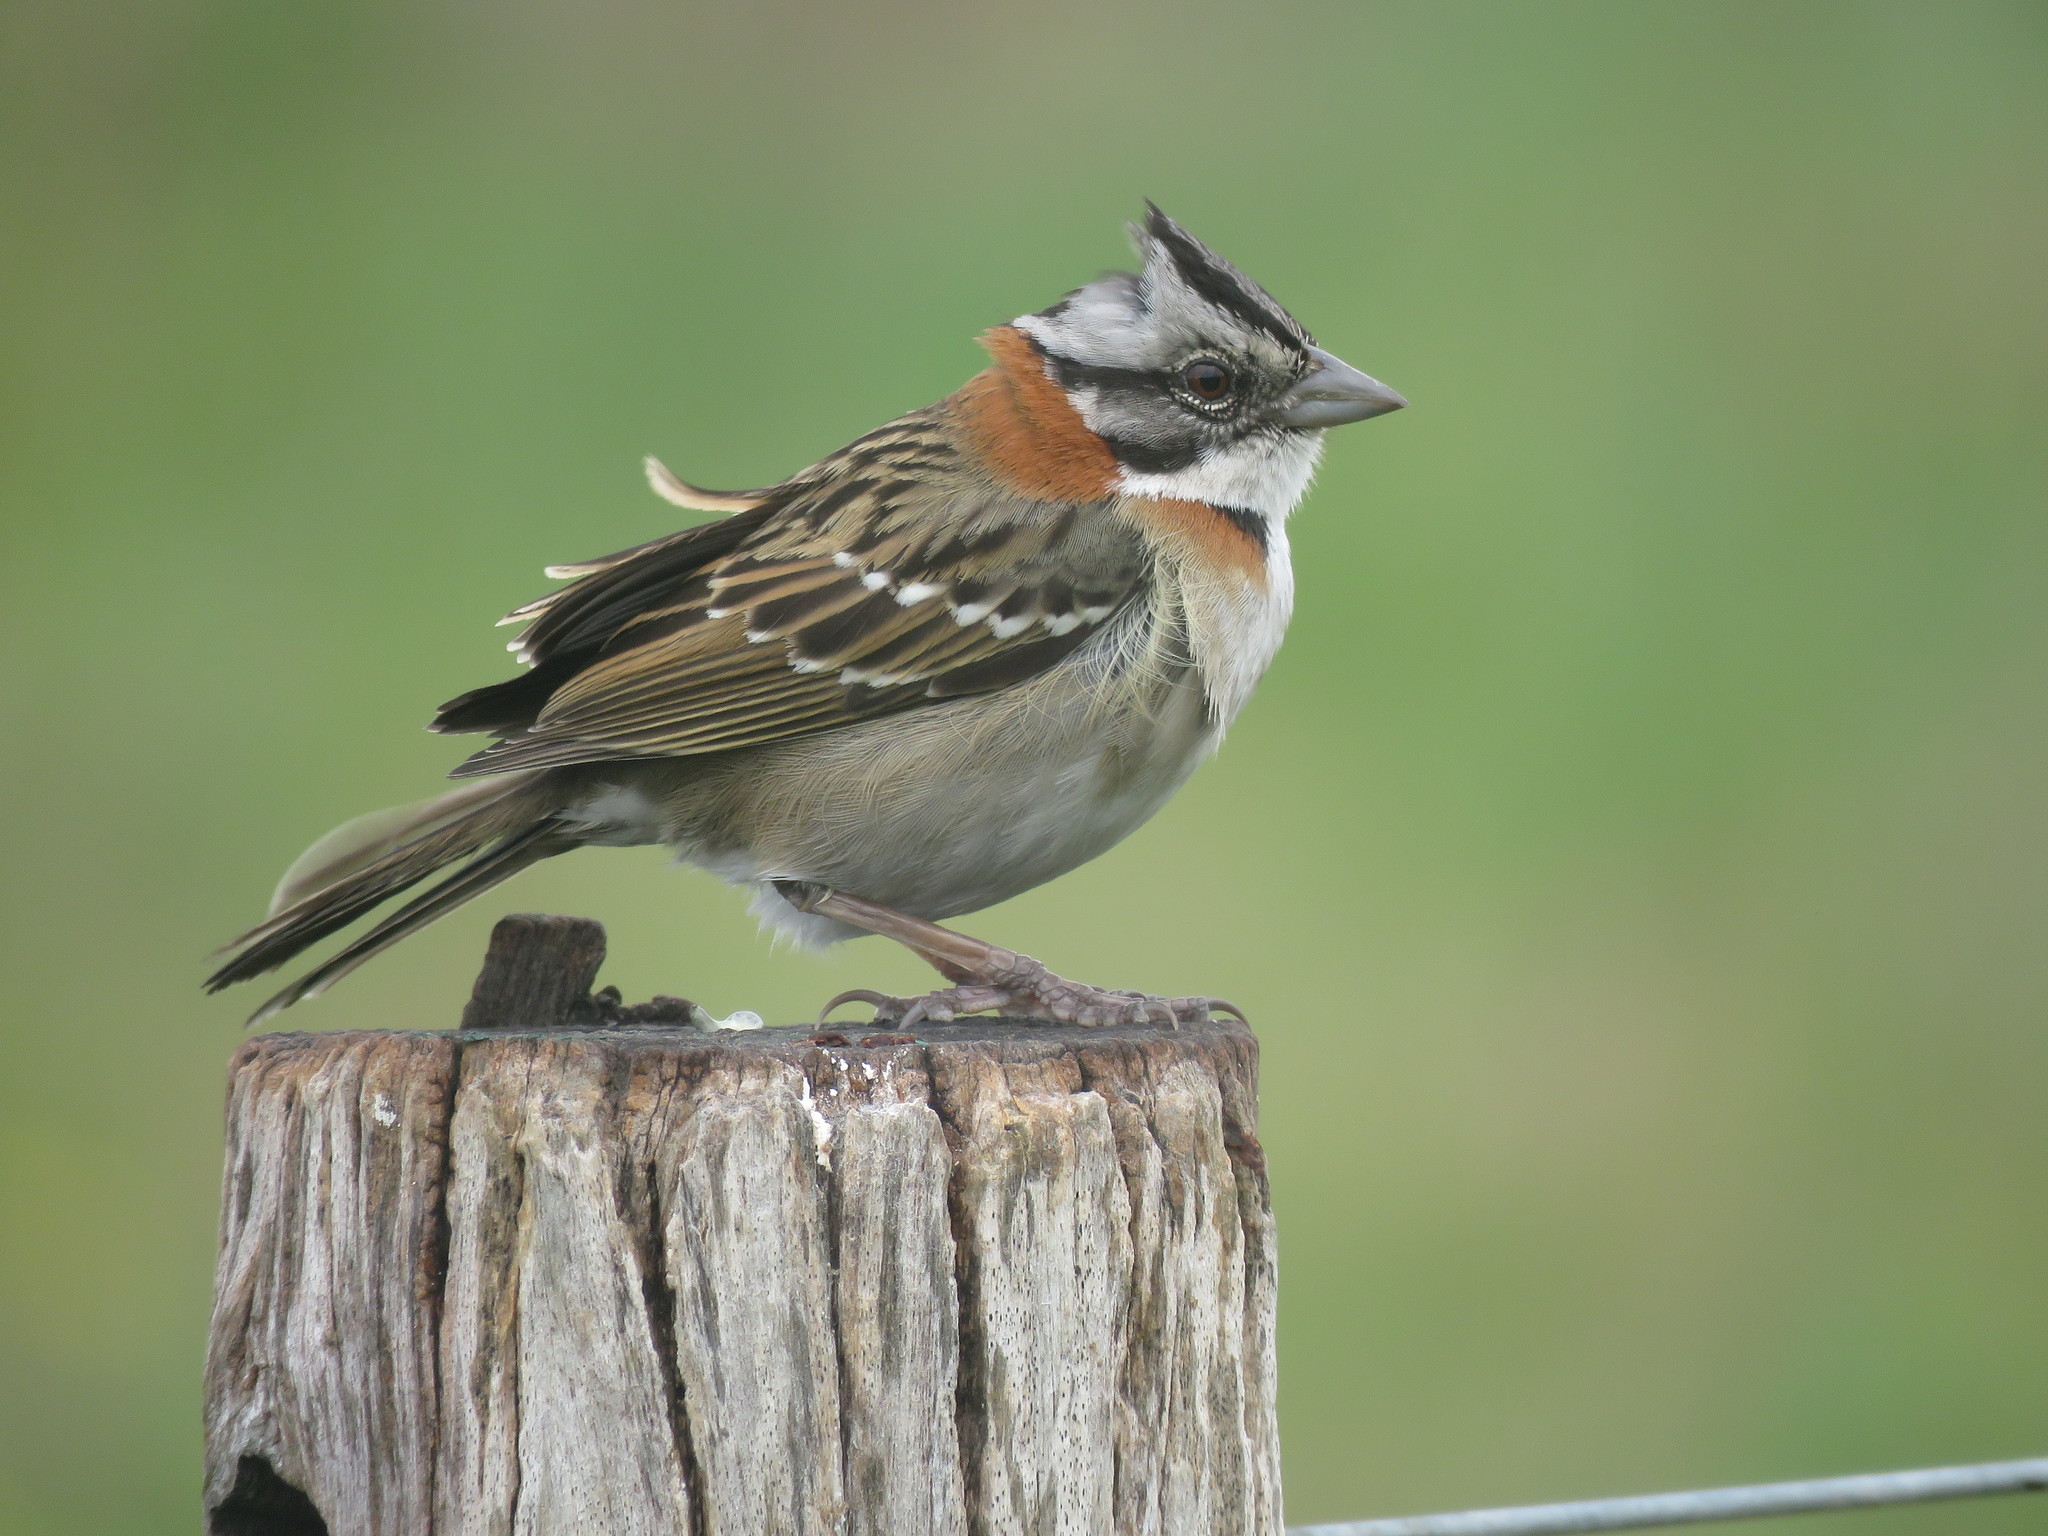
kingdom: Animalia
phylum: Chordata
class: Aves
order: Passeriformes
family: Passerellidae
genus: Zonotrichia
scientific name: Zonotrichia capensis
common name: Rufous-collared sparrow
